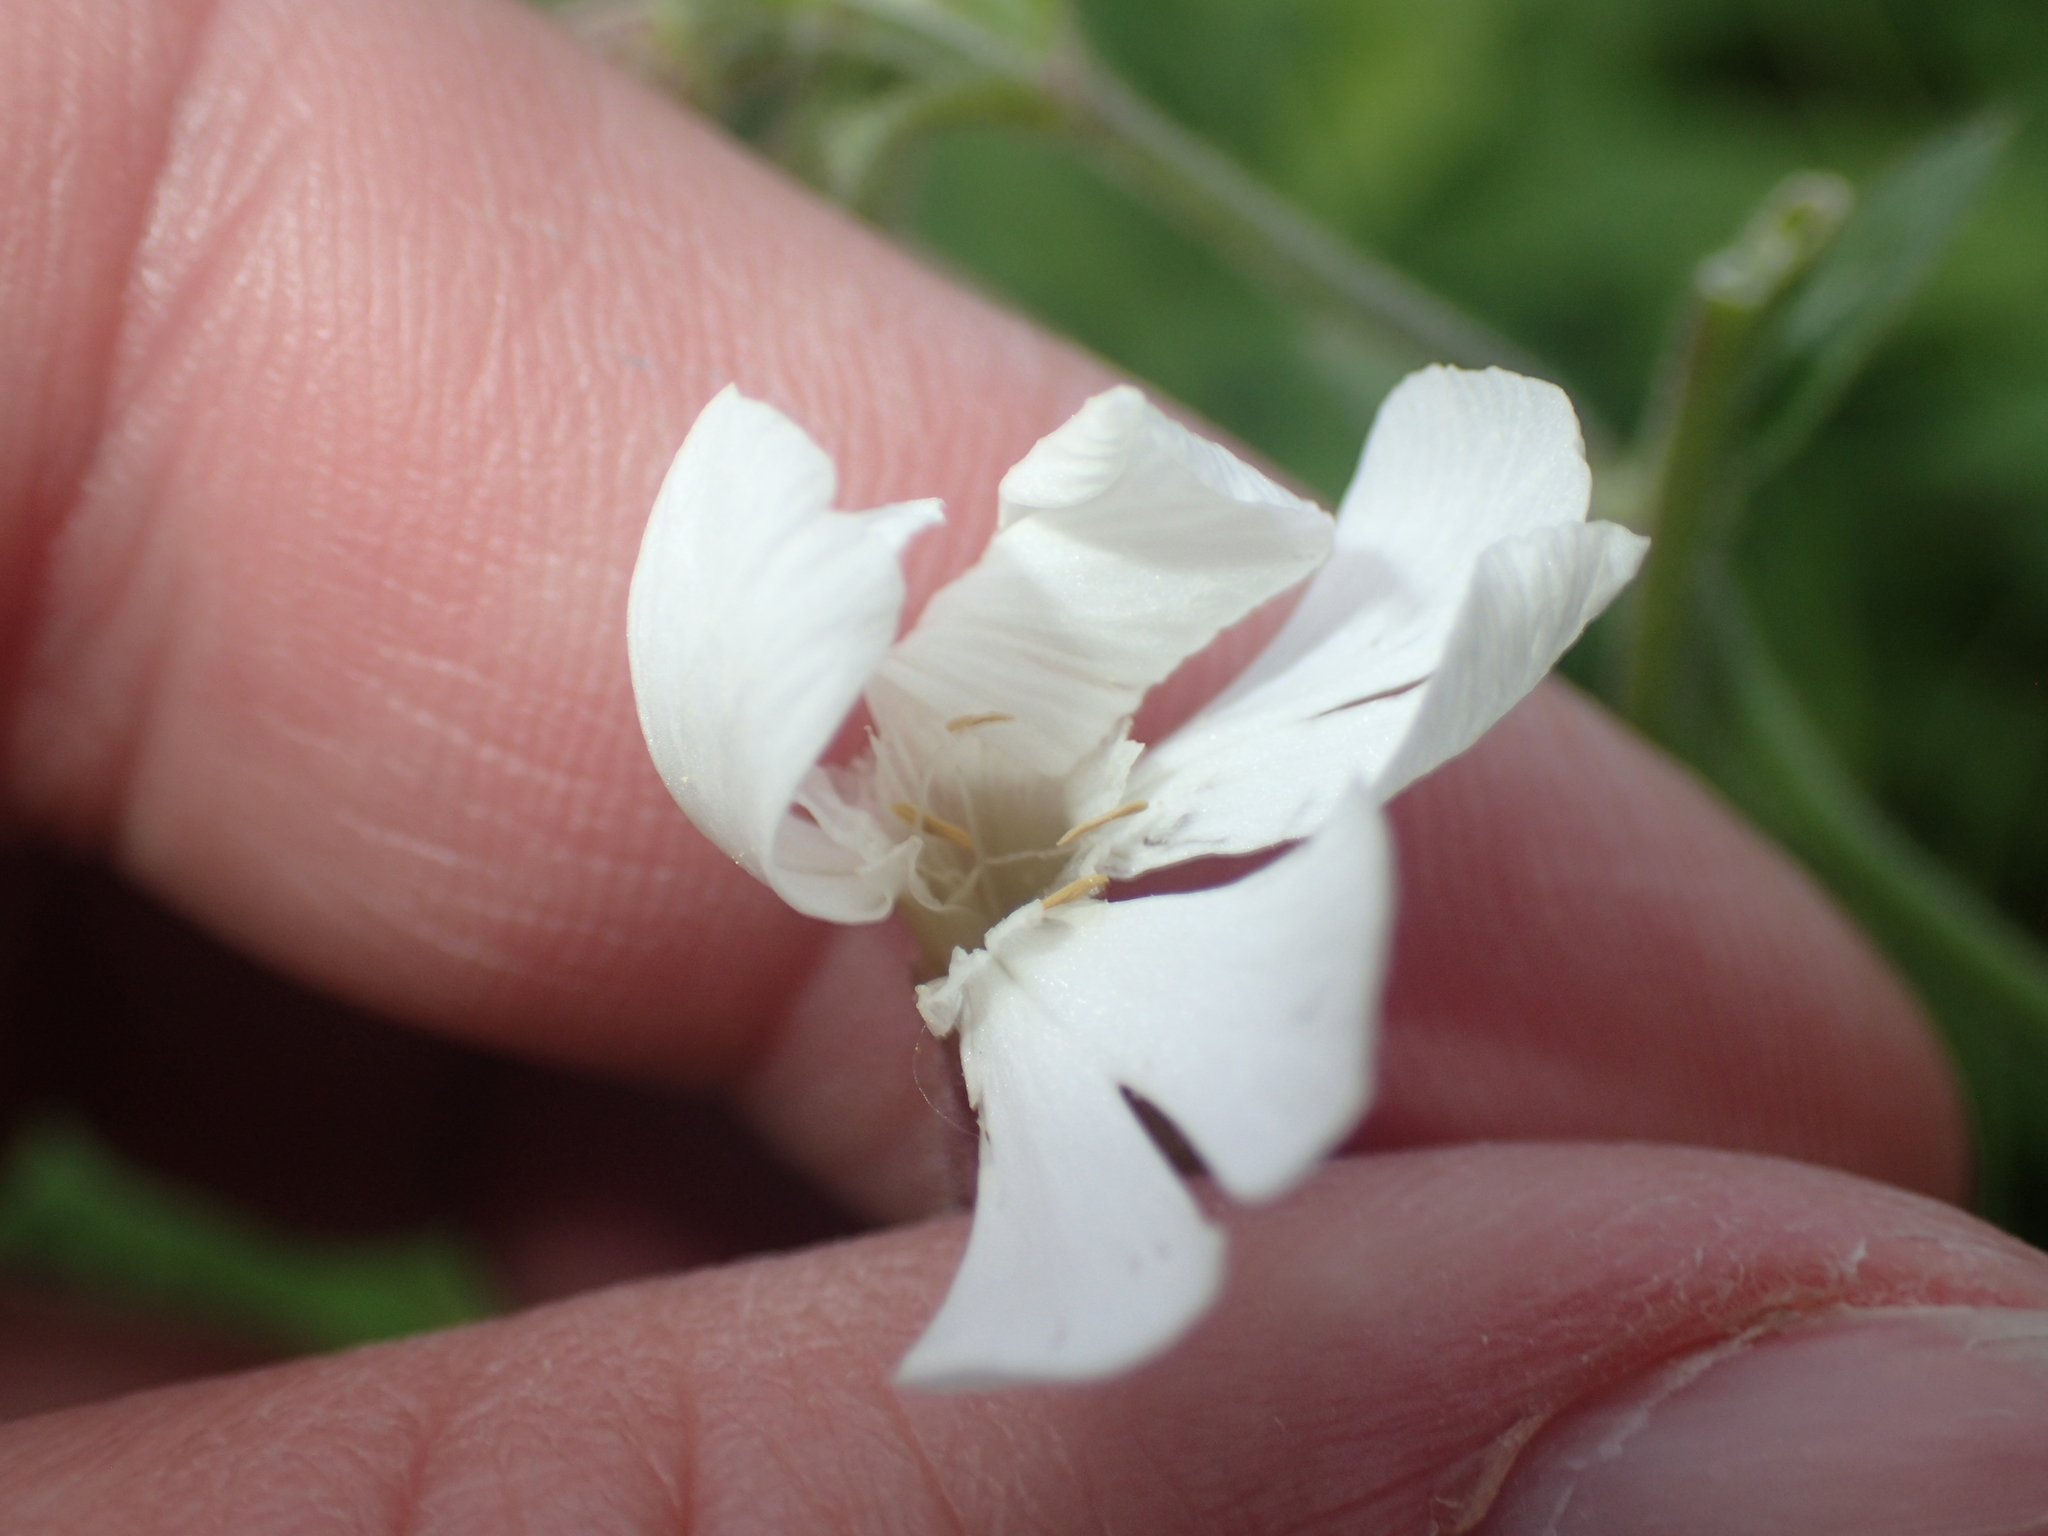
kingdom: Plantae
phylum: Tracheophyta
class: Magnoliopsida
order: Caryophyllales
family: Caryophyllaceae
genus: Silene
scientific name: Silene latifolia
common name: White campion
